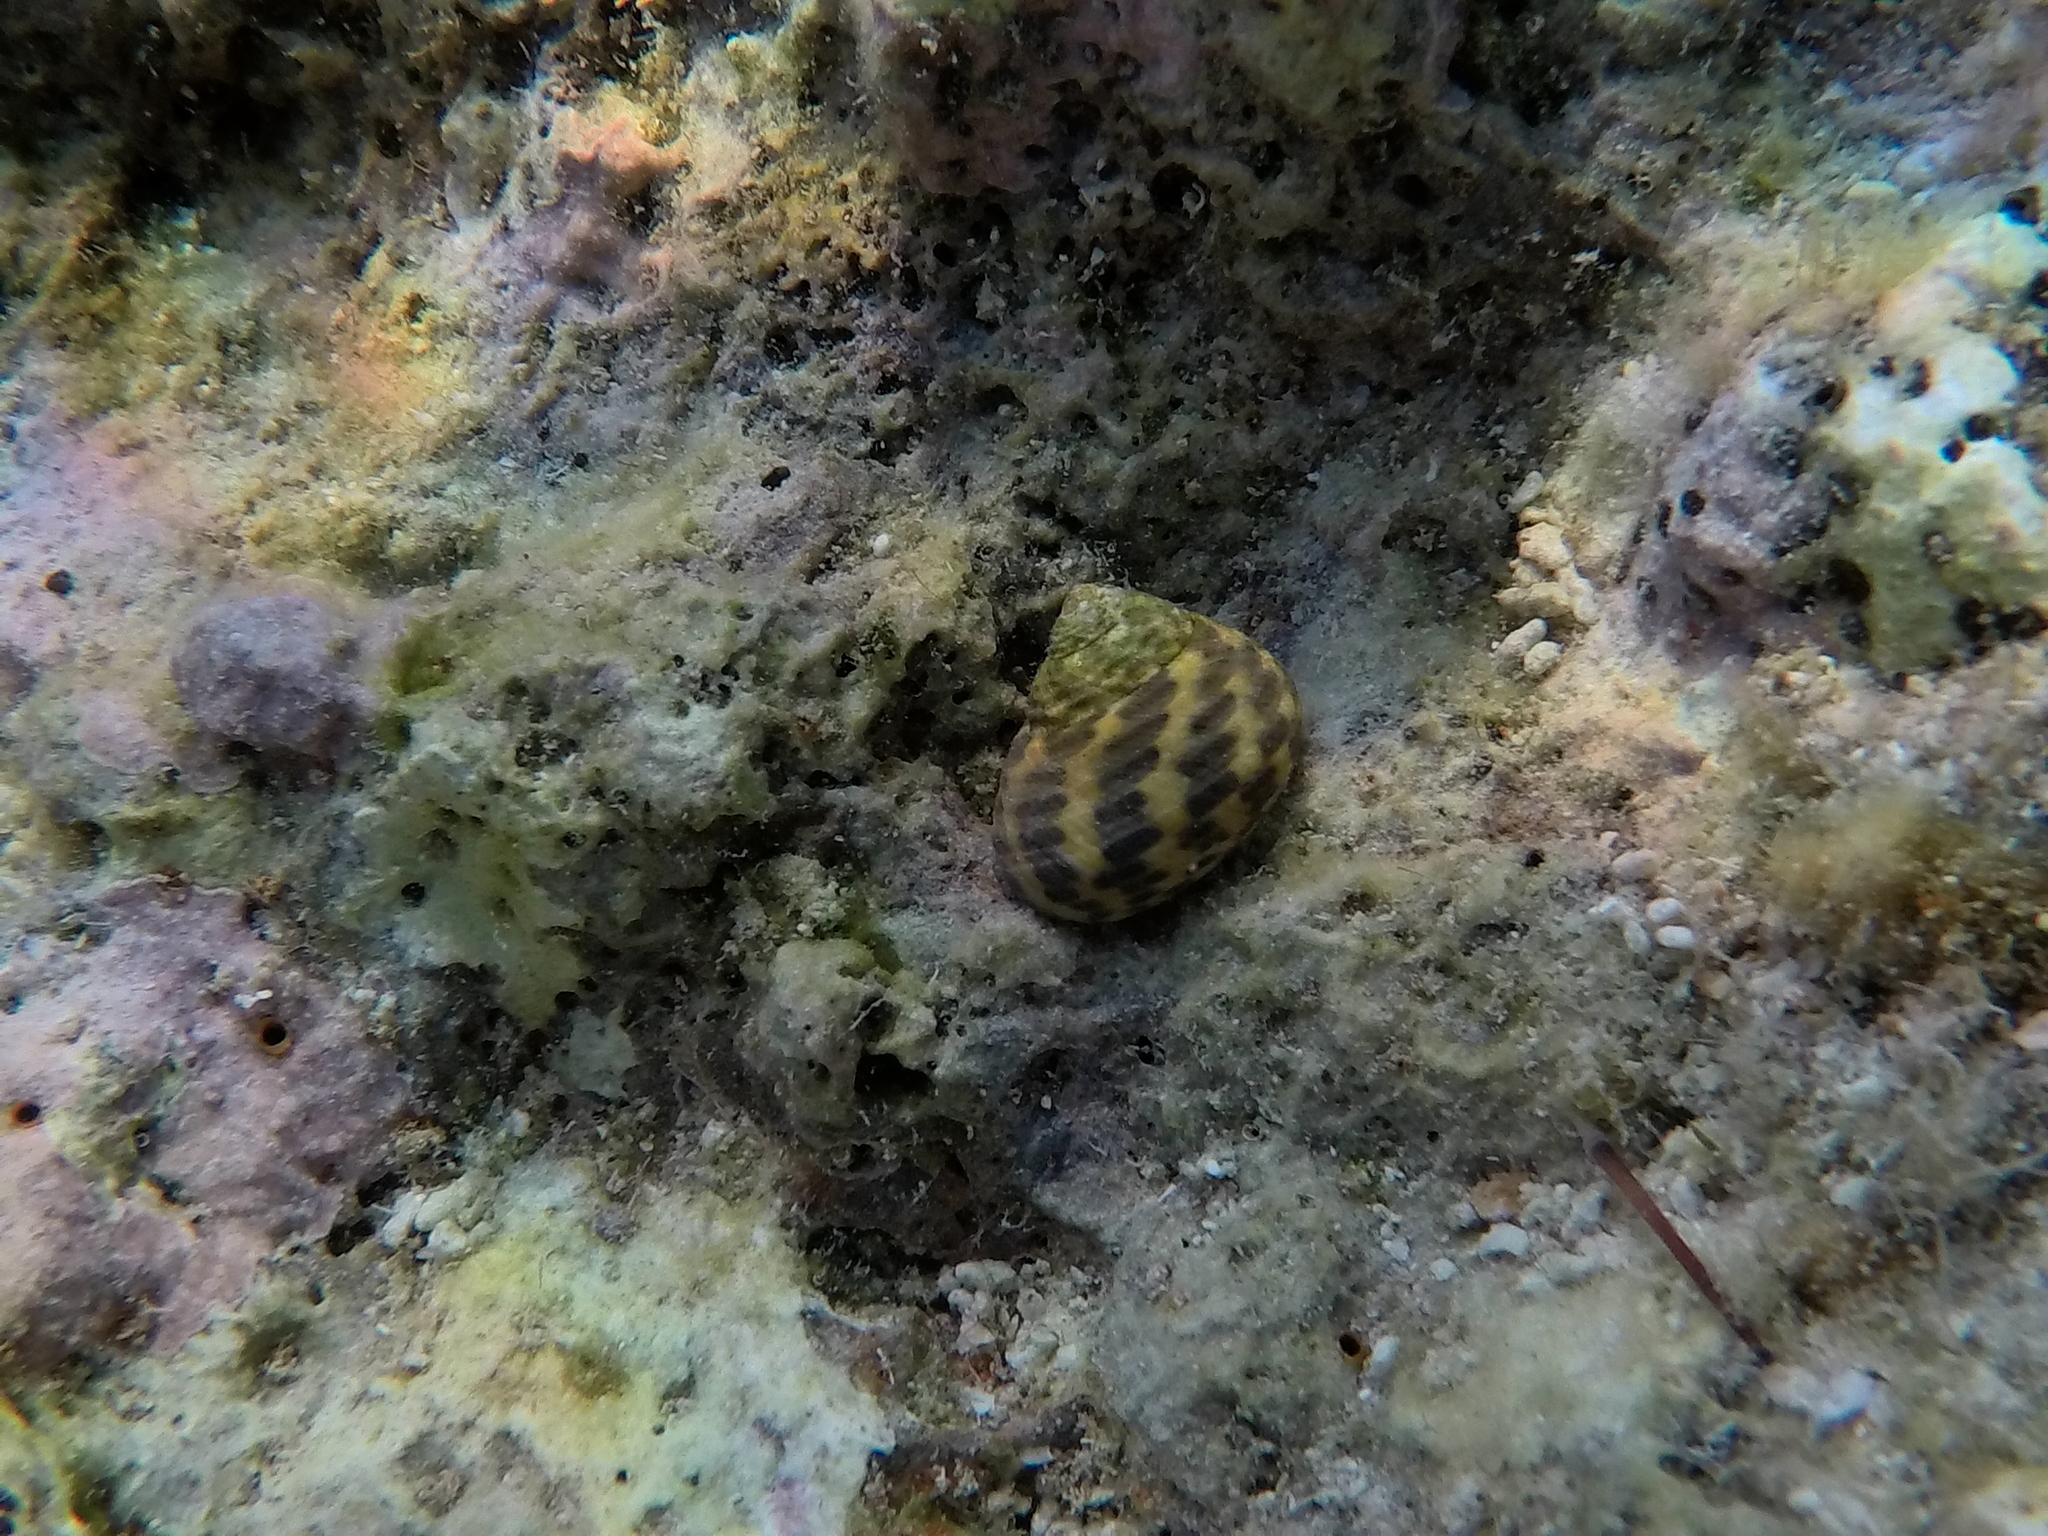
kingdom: Animalia
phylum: Mollusca
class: Gastropoda
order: Trochida
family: Trochidae
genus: Phorcus
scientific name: Phorcus turbinatus
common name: Turbinate monodont
